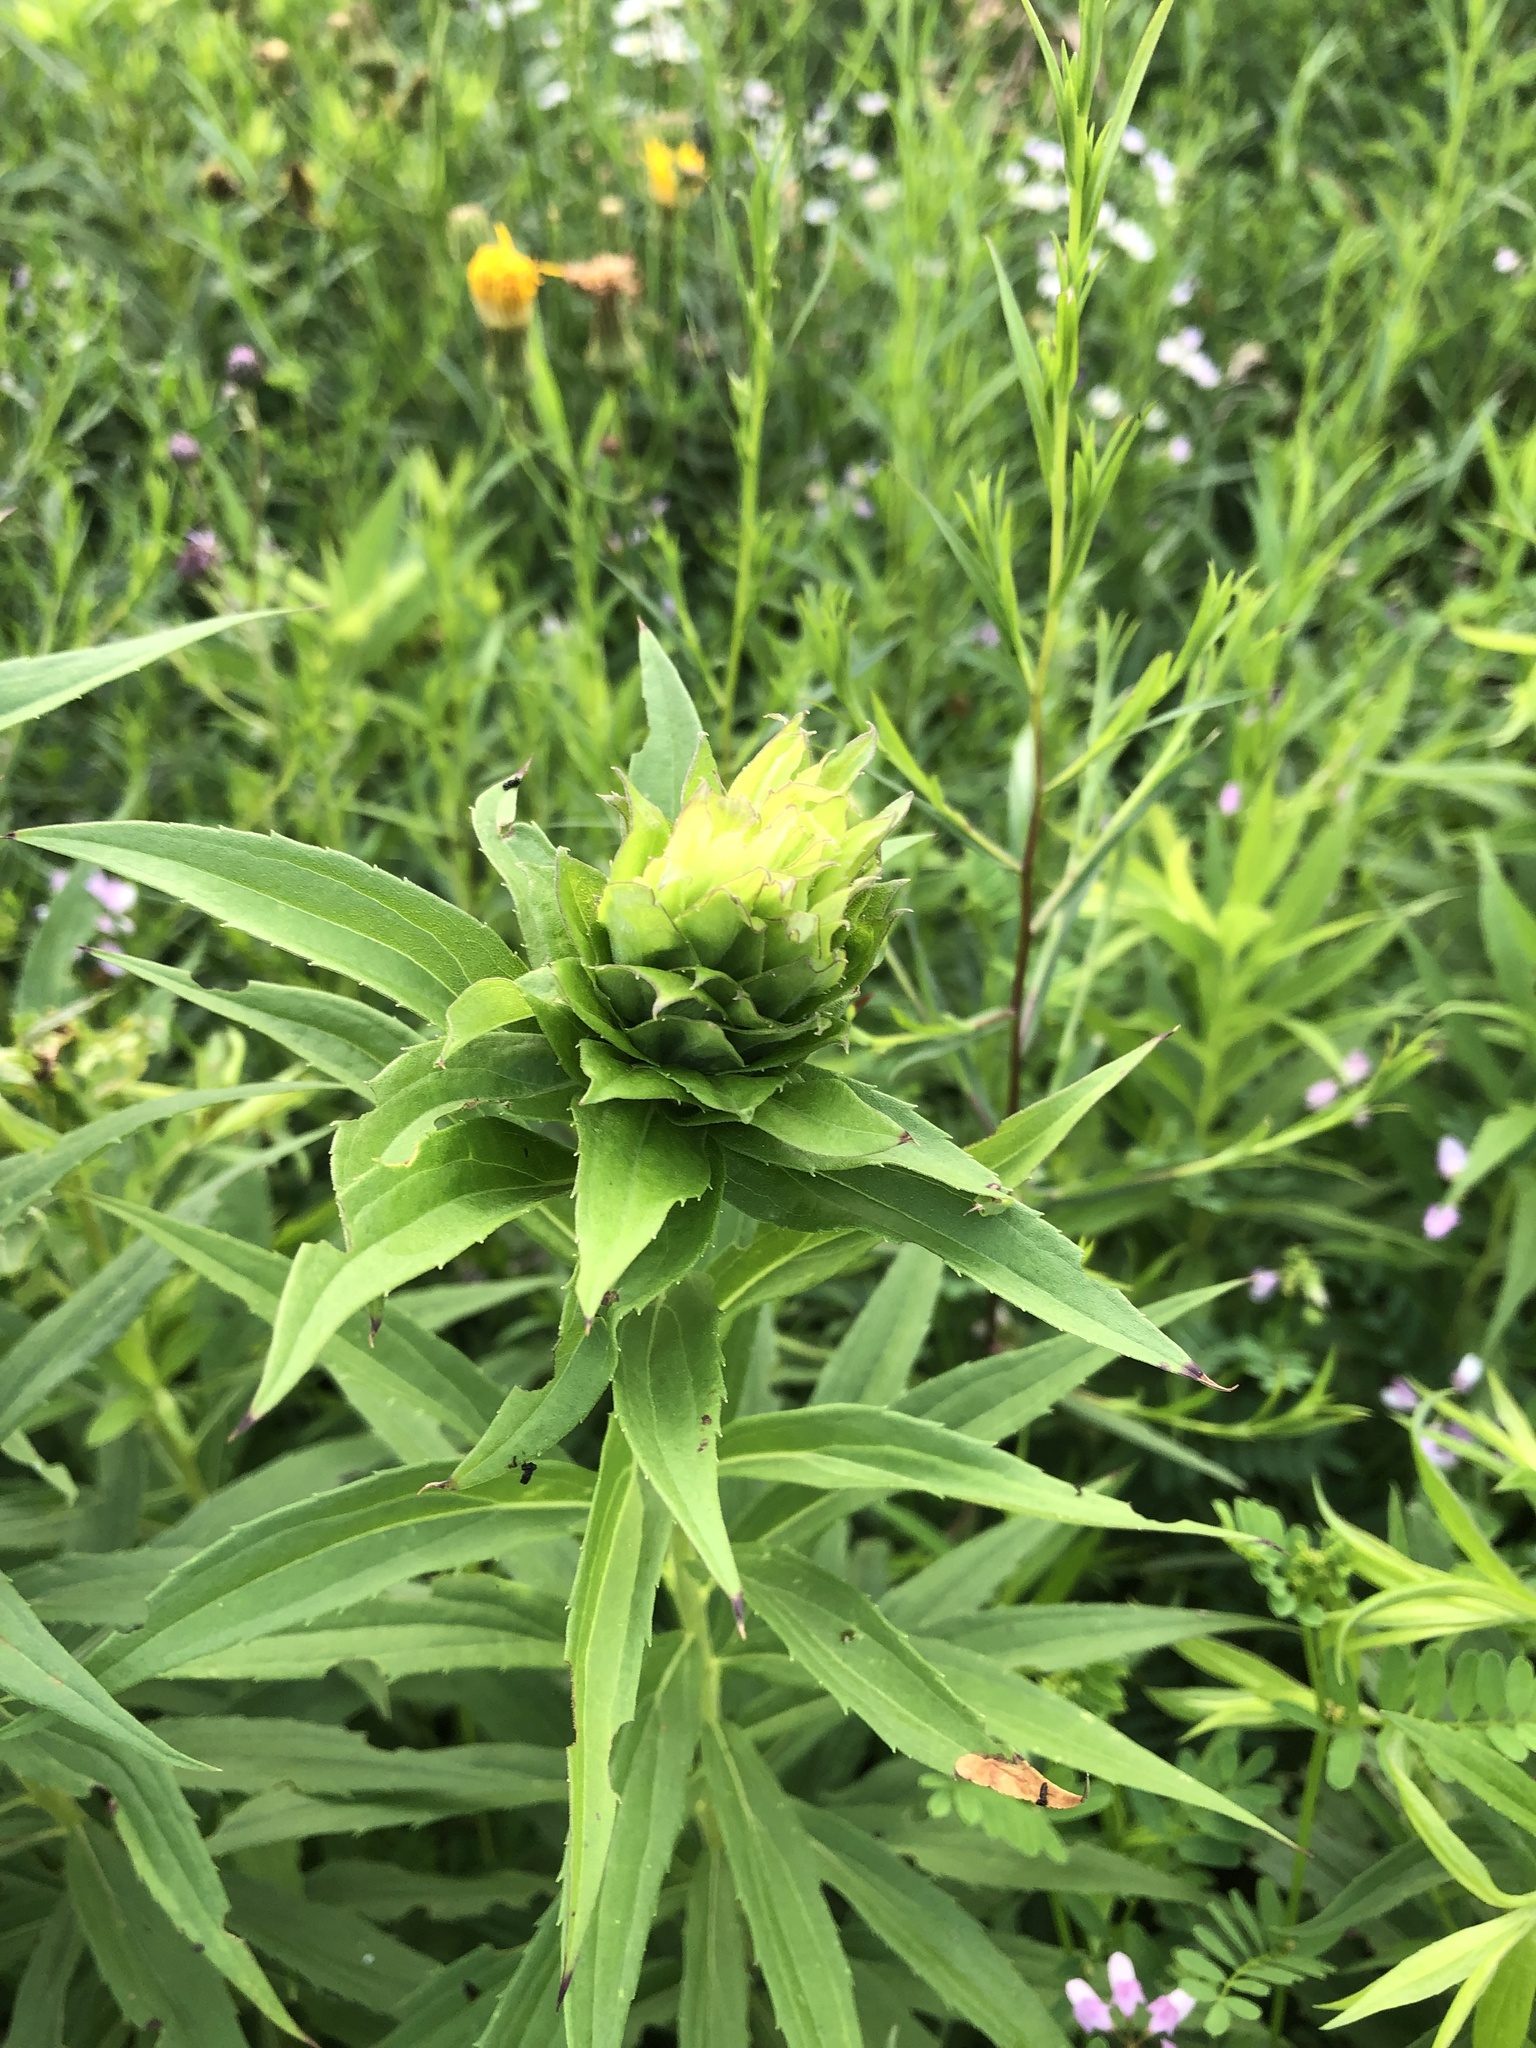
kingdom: Animalia
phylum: Arthropoda
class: Insecta
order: Diptera
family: Cecidomyiidae
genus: Rhopalomyia
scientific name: Rhopalomyia solidaginis
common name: Goldenrod bunch gall midge
